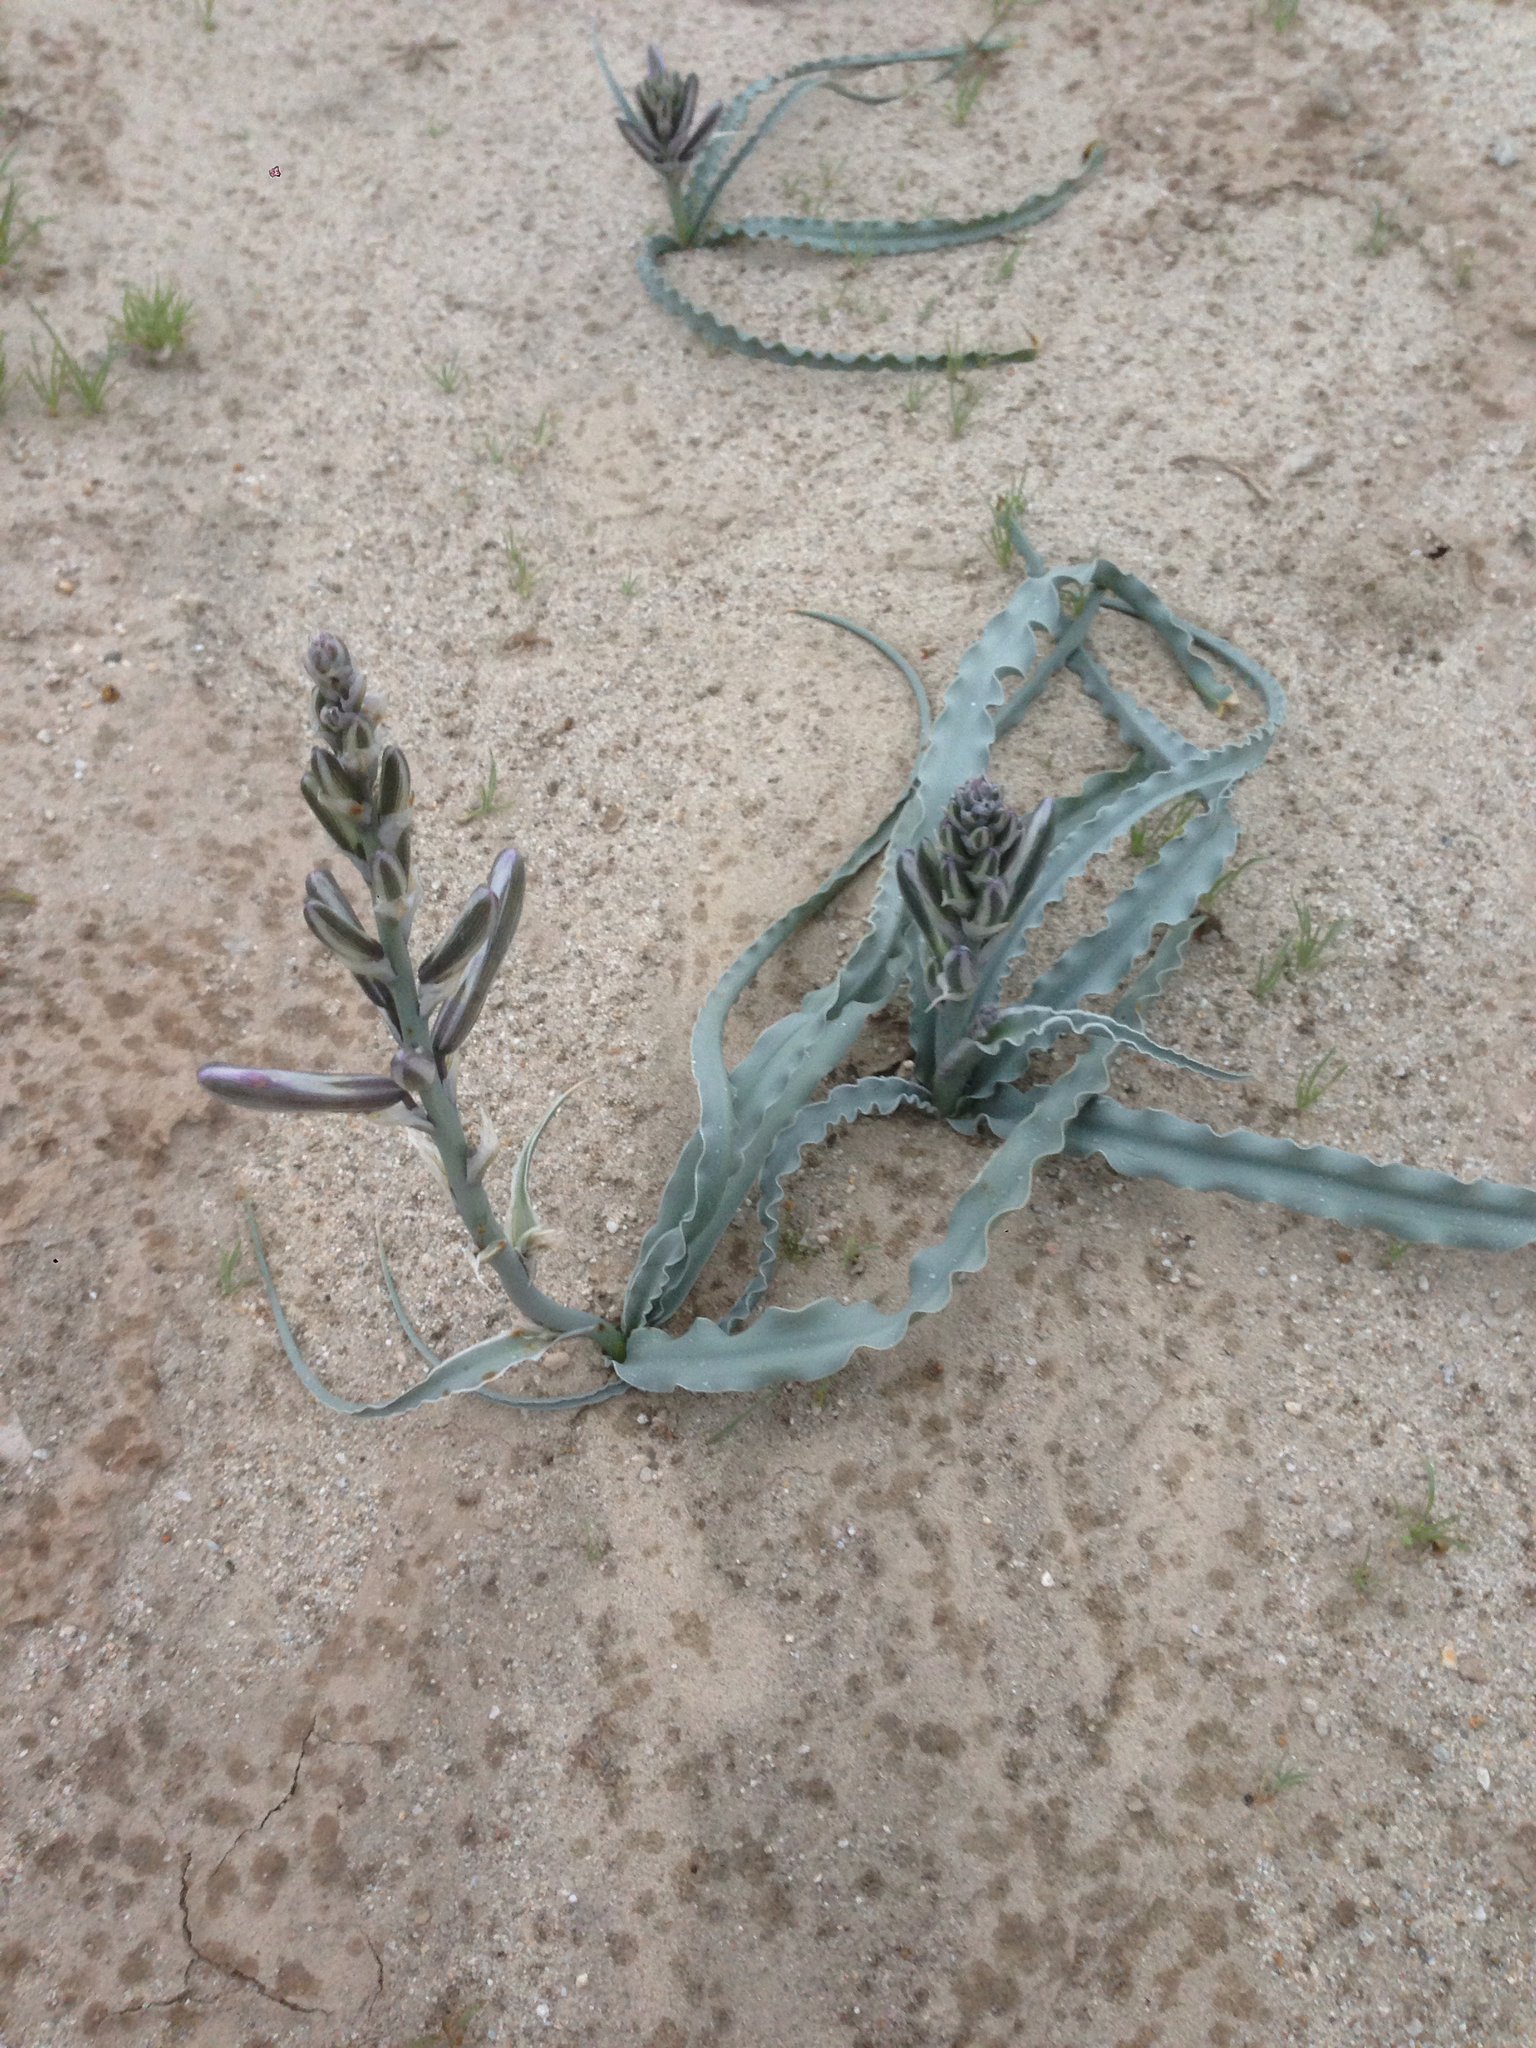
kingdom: Plantae
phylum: Tracheophyta
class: Liliopsida
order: Asparagales
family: Asparagaceae
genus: Hesperocallis
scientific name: Hesperocallis undulata
